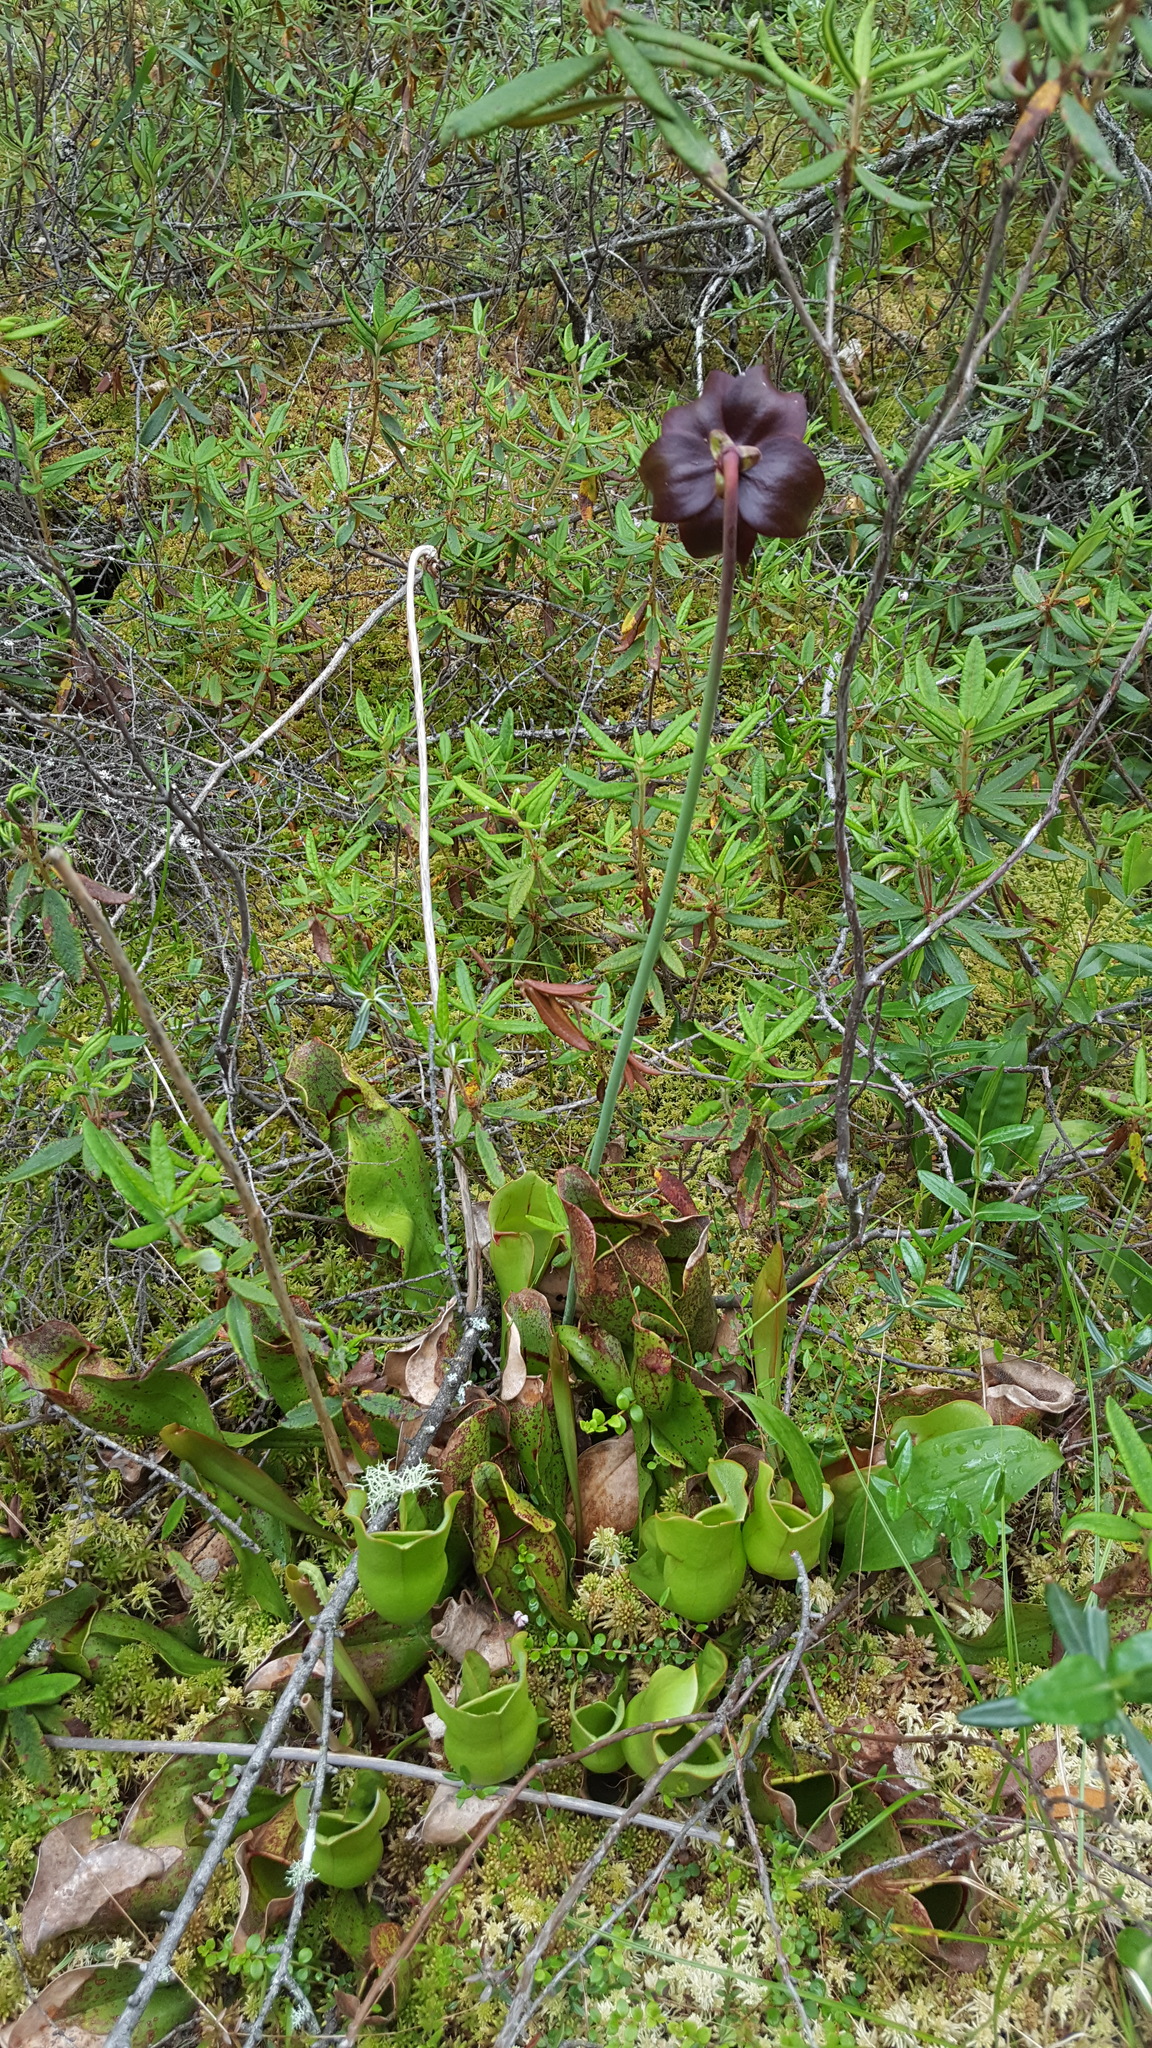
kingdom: Plantae
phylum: Tracheophyta
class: Magnoliopsida
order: Ericales
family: Sarraceniaceae
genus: Sarracenia
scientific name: Sarracenia purpurea
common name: Pitcherplant
